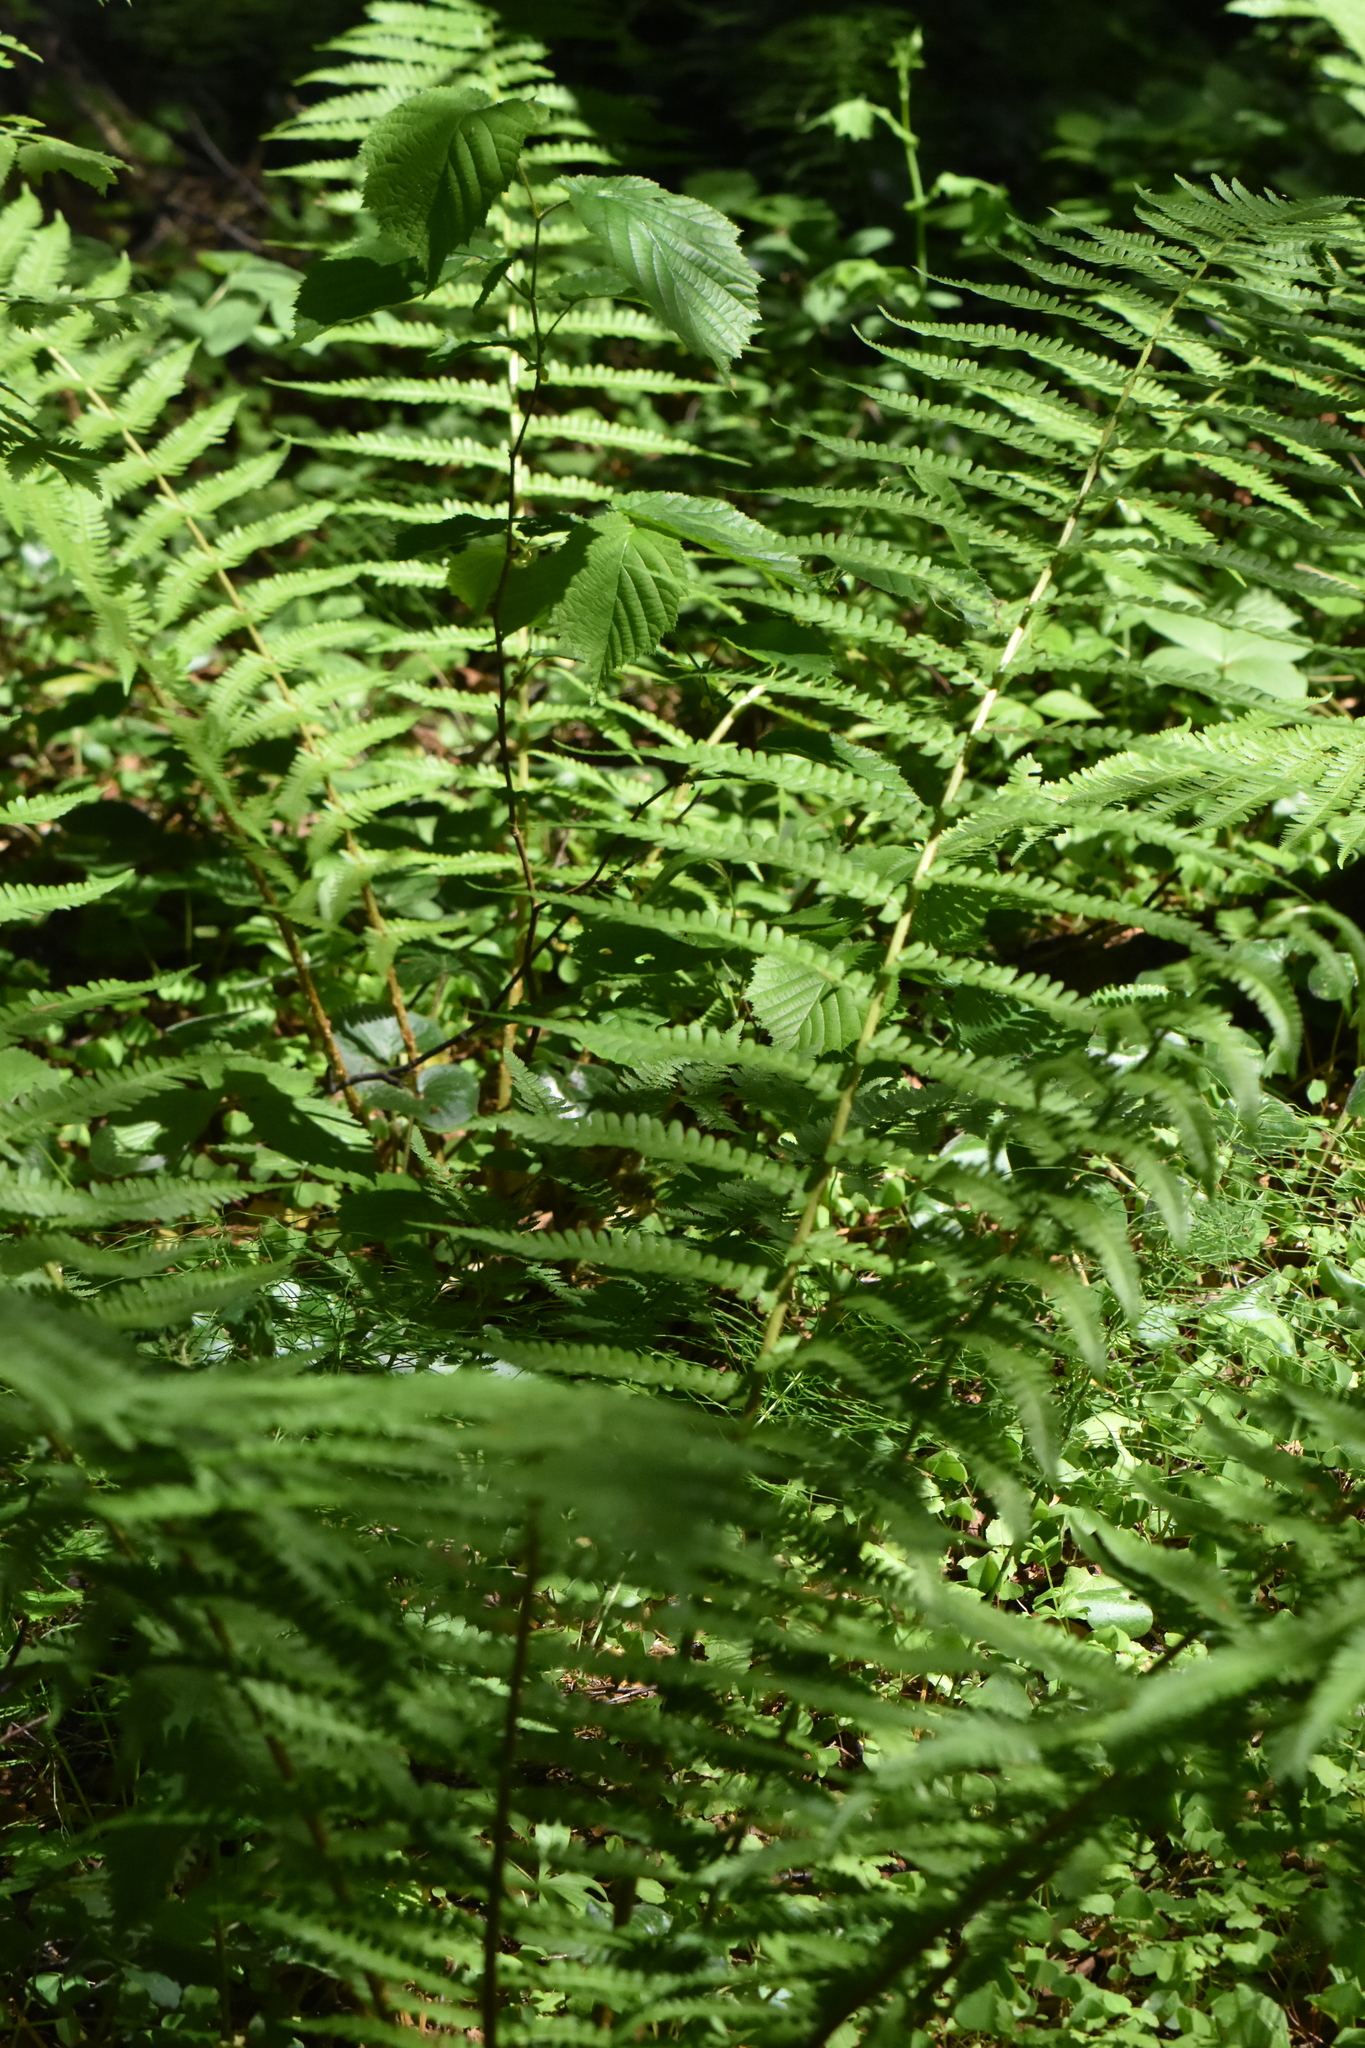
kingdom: Plantae
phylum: Tracheophyta
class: Polypodiopsida
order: Polypodiales
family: Dryopteridaceae
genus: Dryopteris
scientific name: Dryopteris filix-mas
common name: Male fern
